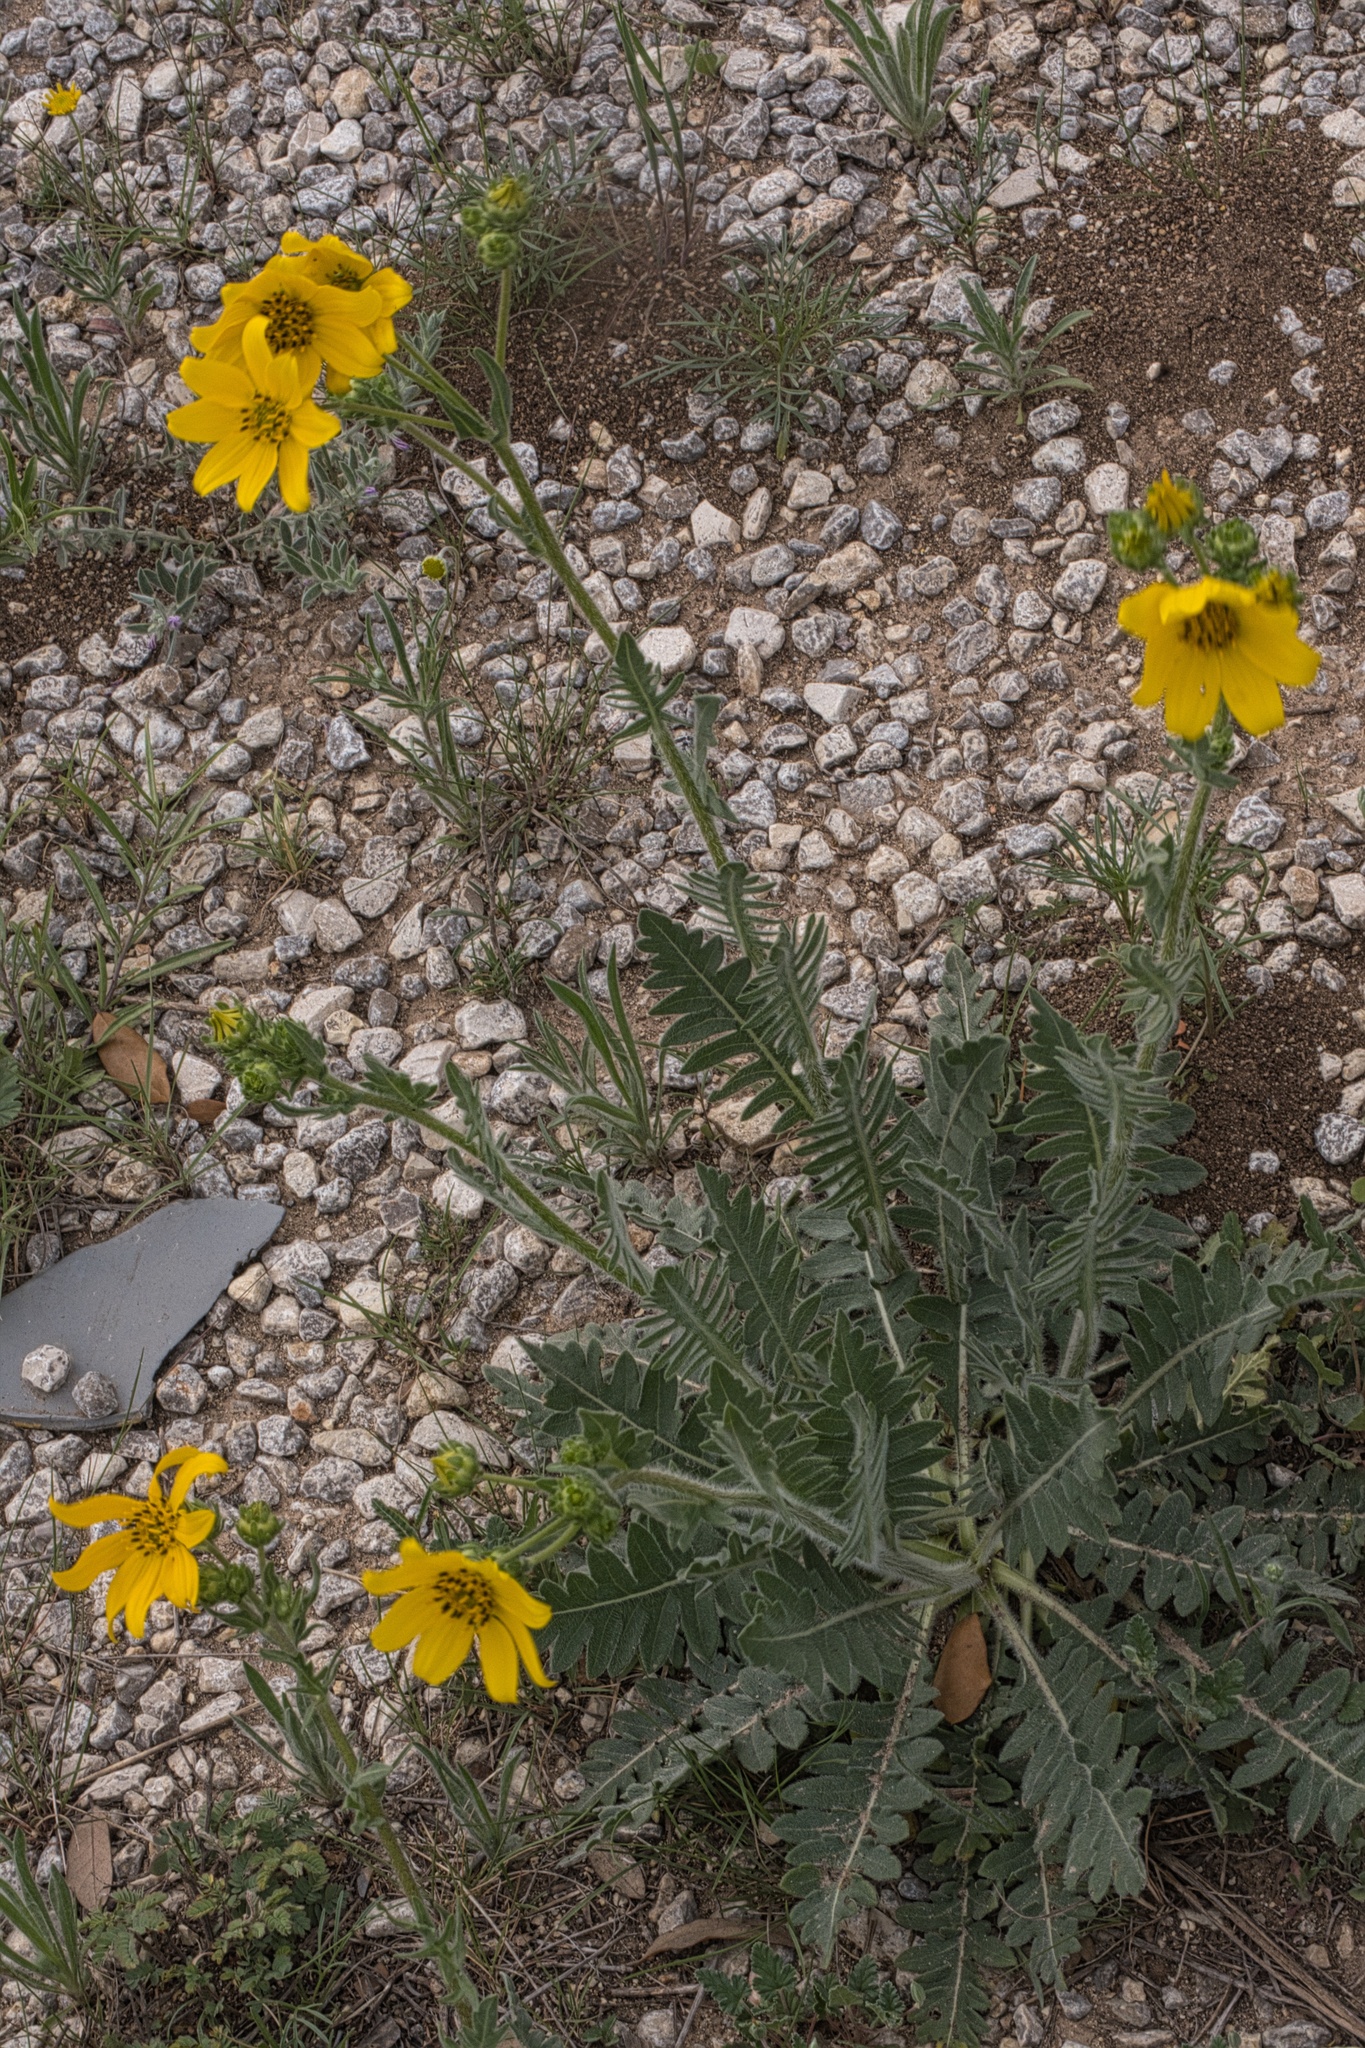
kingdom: Plantae
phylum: Tracheophyta
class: Magnoliopsida
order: Asterales
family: Asteraceae
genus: Engelmannia
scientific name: Engelmannia peristenia
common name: Engelmann's daisy
